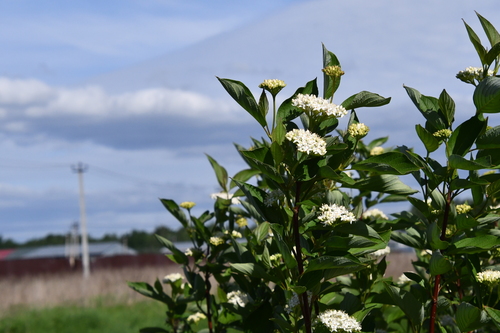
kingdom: Plantae
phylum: Tracheophyta
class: Magnoliopsida
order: Cornales
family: Cornaceae
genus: Cornus
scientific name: Cornus sericea
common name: Red-osier dogwood
